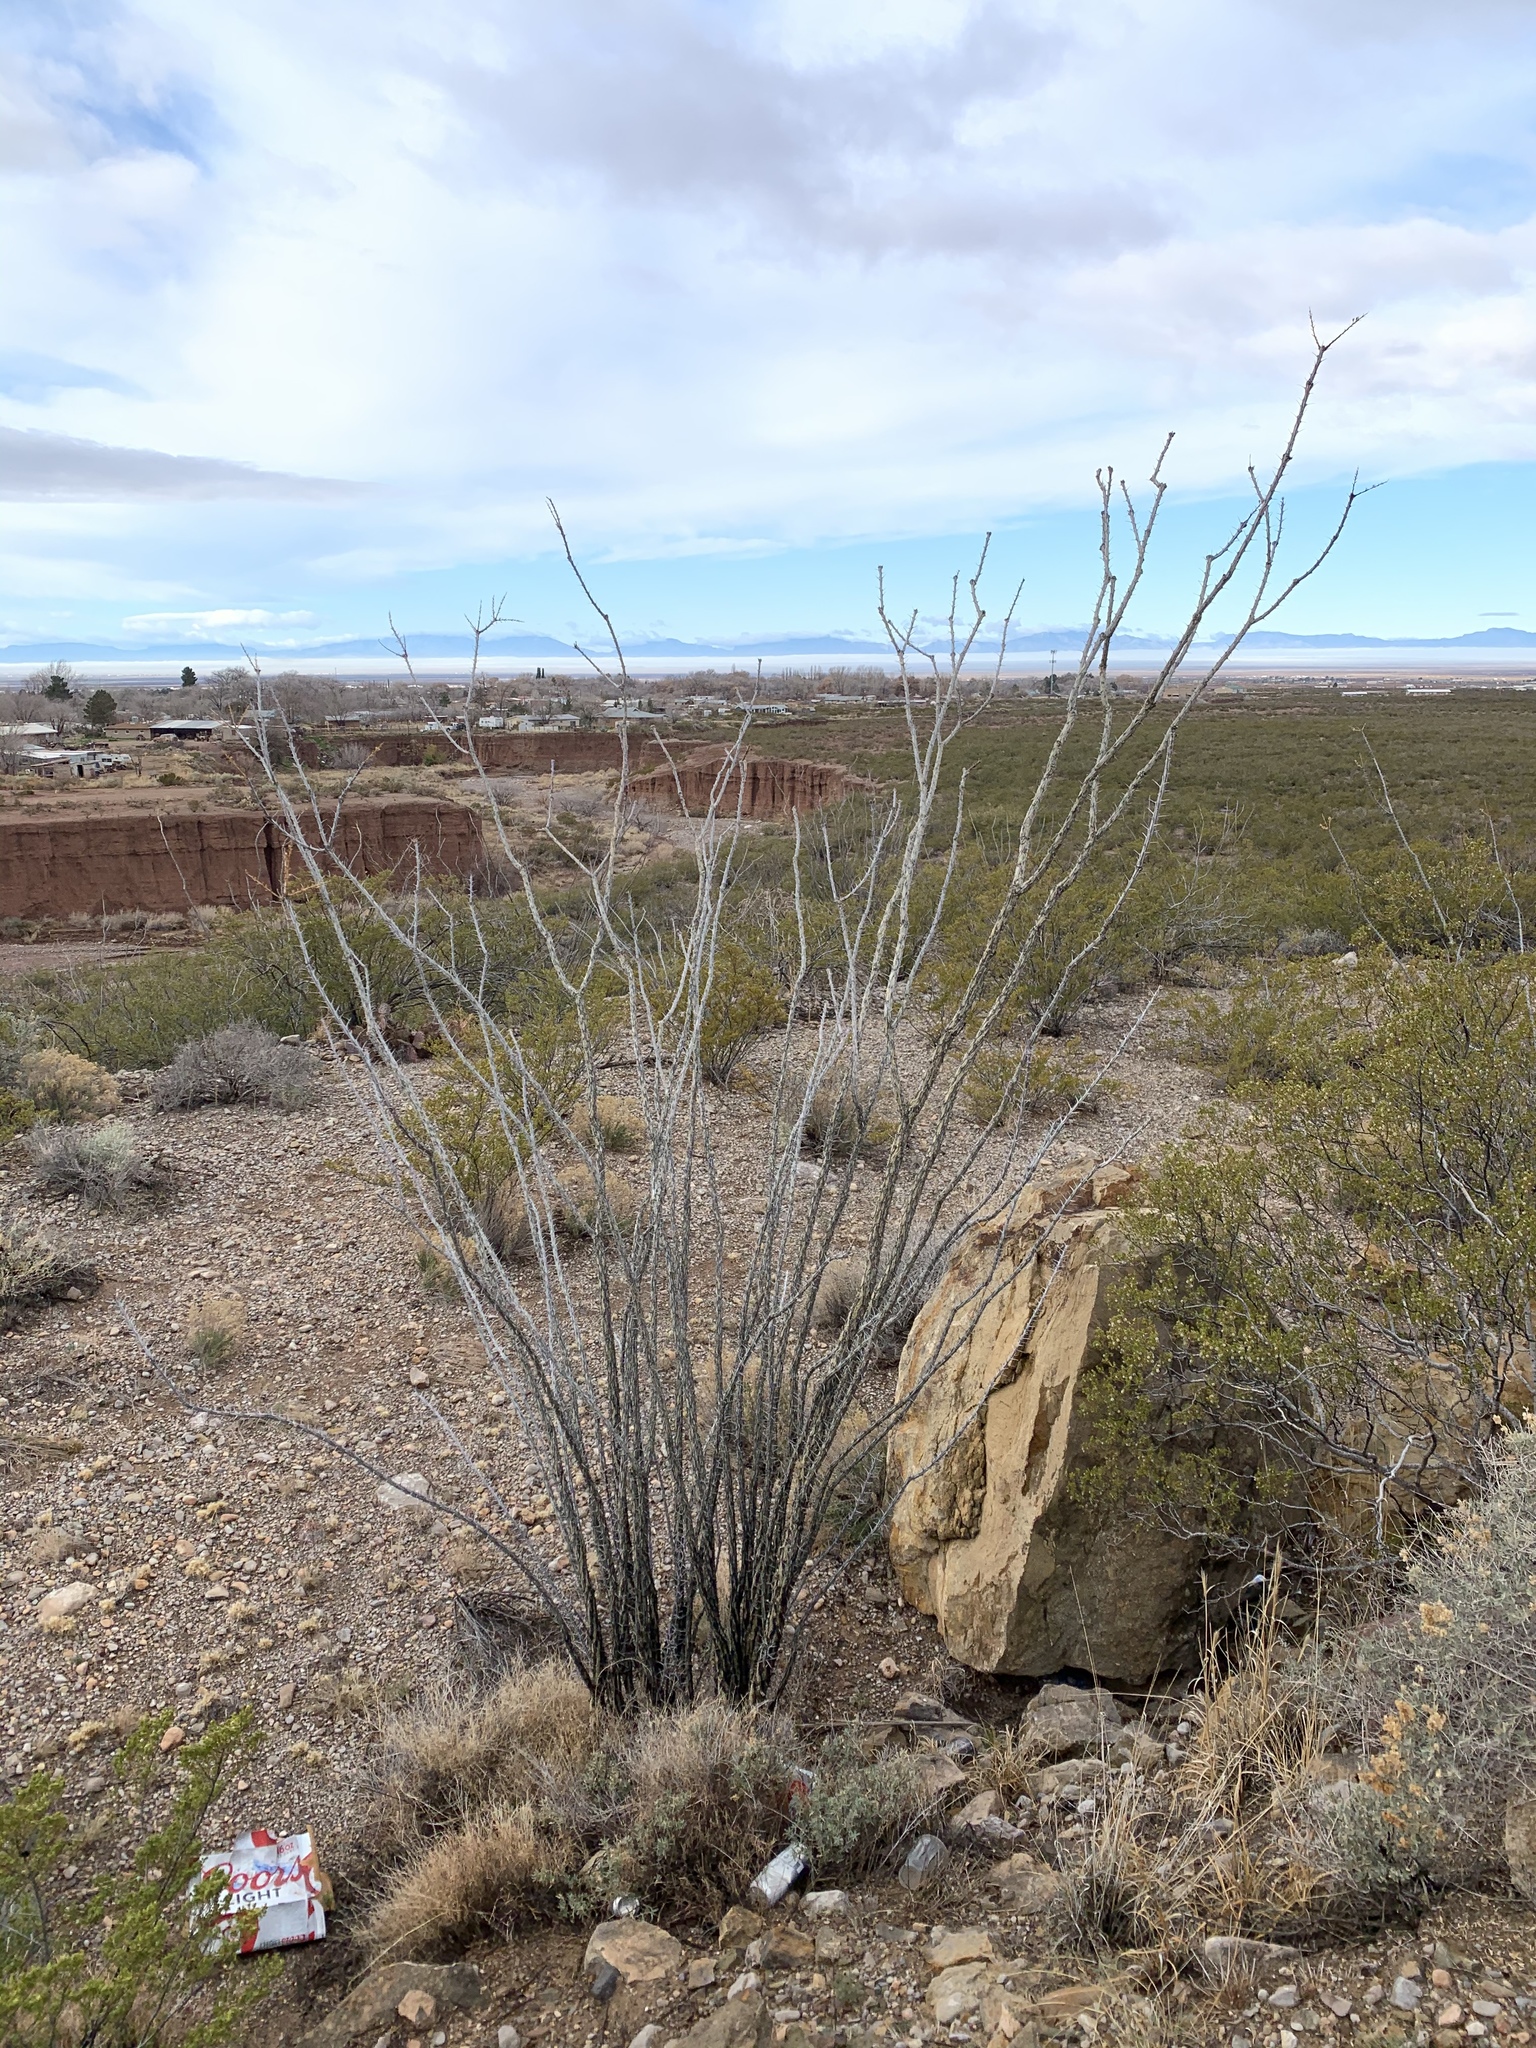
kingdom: Plantae
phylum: Tracheophyta
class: Magnoliopsida
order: Ericales
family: Fouquieriaceae
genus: Fouquieria
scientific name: Fouquieria splendens
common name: Vine-cactus
